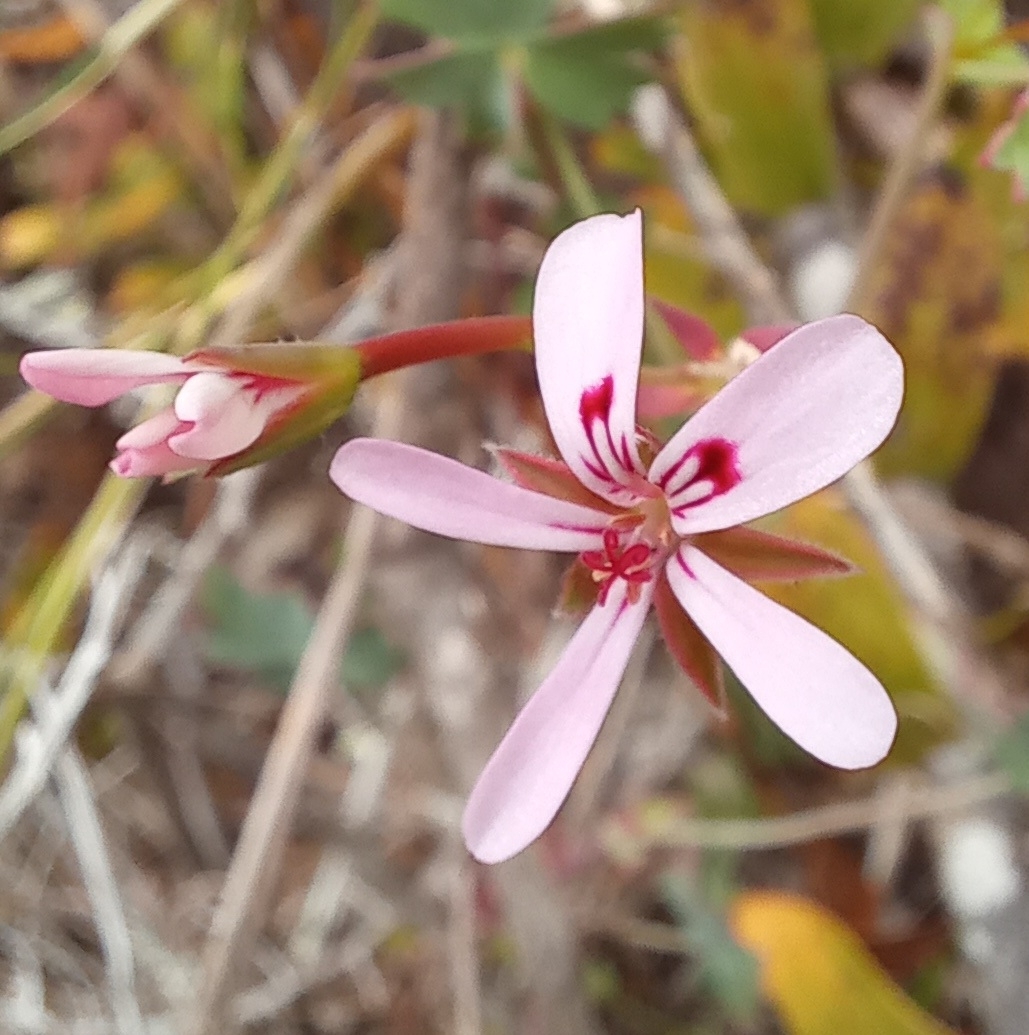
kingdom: Plantae
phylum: Tracheophyta
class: Magnoliopsida
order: Geraniales
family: Geraniaceae
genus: Pelargonium
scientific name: Pelargonium patulum
